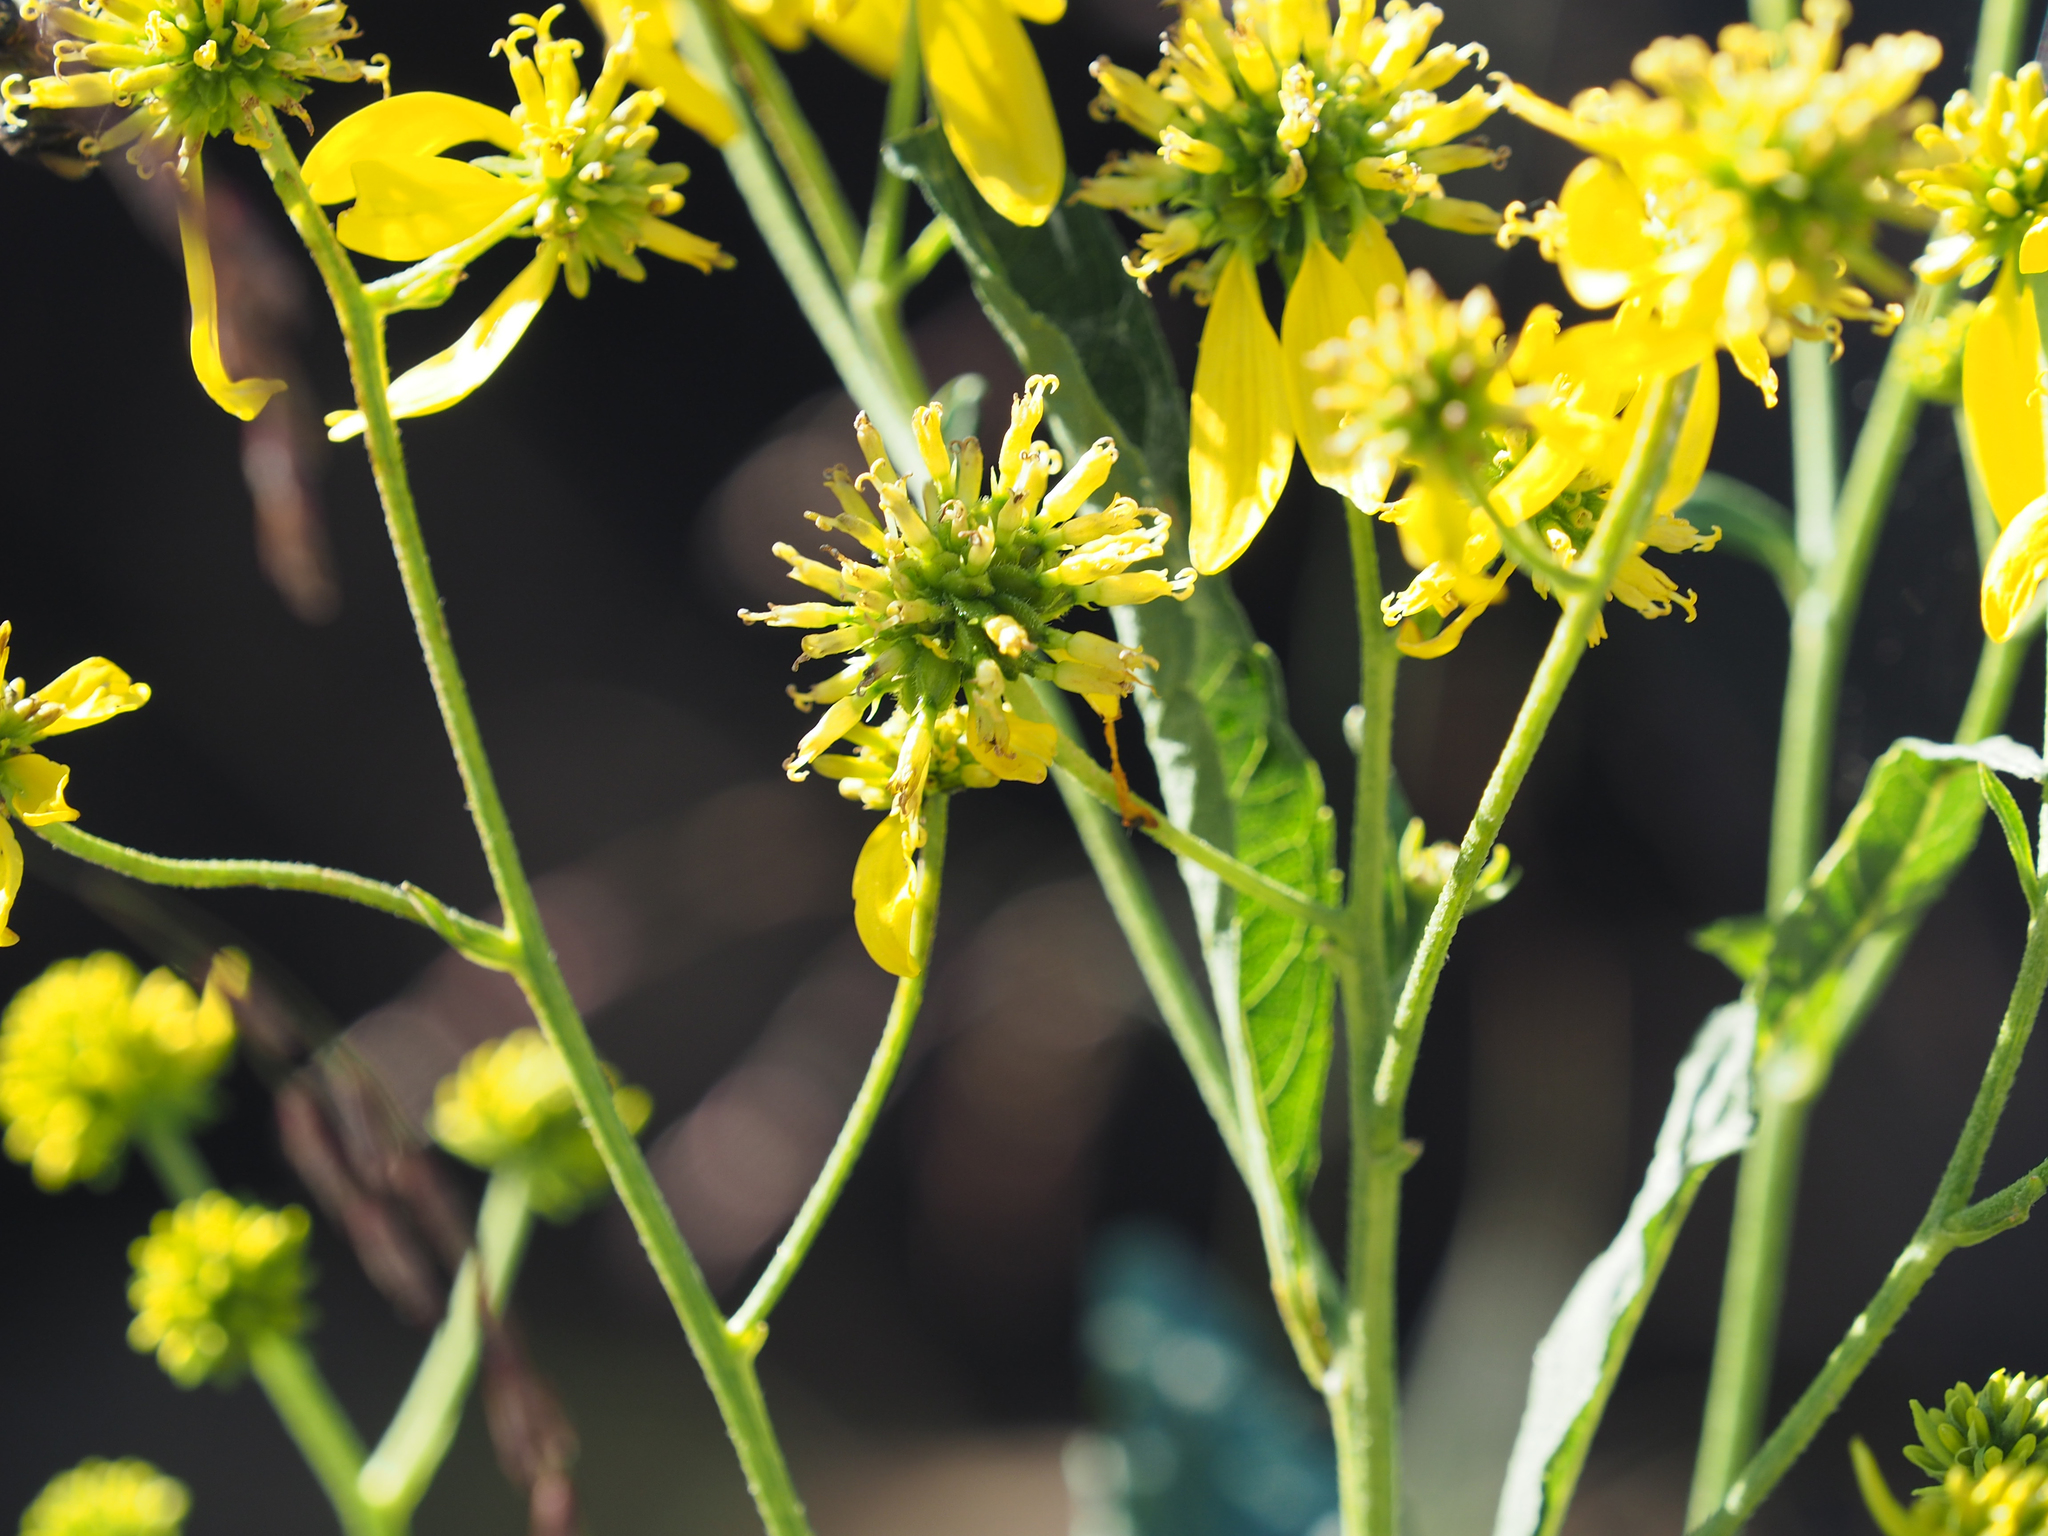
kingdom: Plantae
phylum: Tracheophyta
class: Magnoliopsida
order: Asterales
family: Asteraceae
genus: Verbesina
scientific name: Verbesina alternifolia
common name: Wingstem
